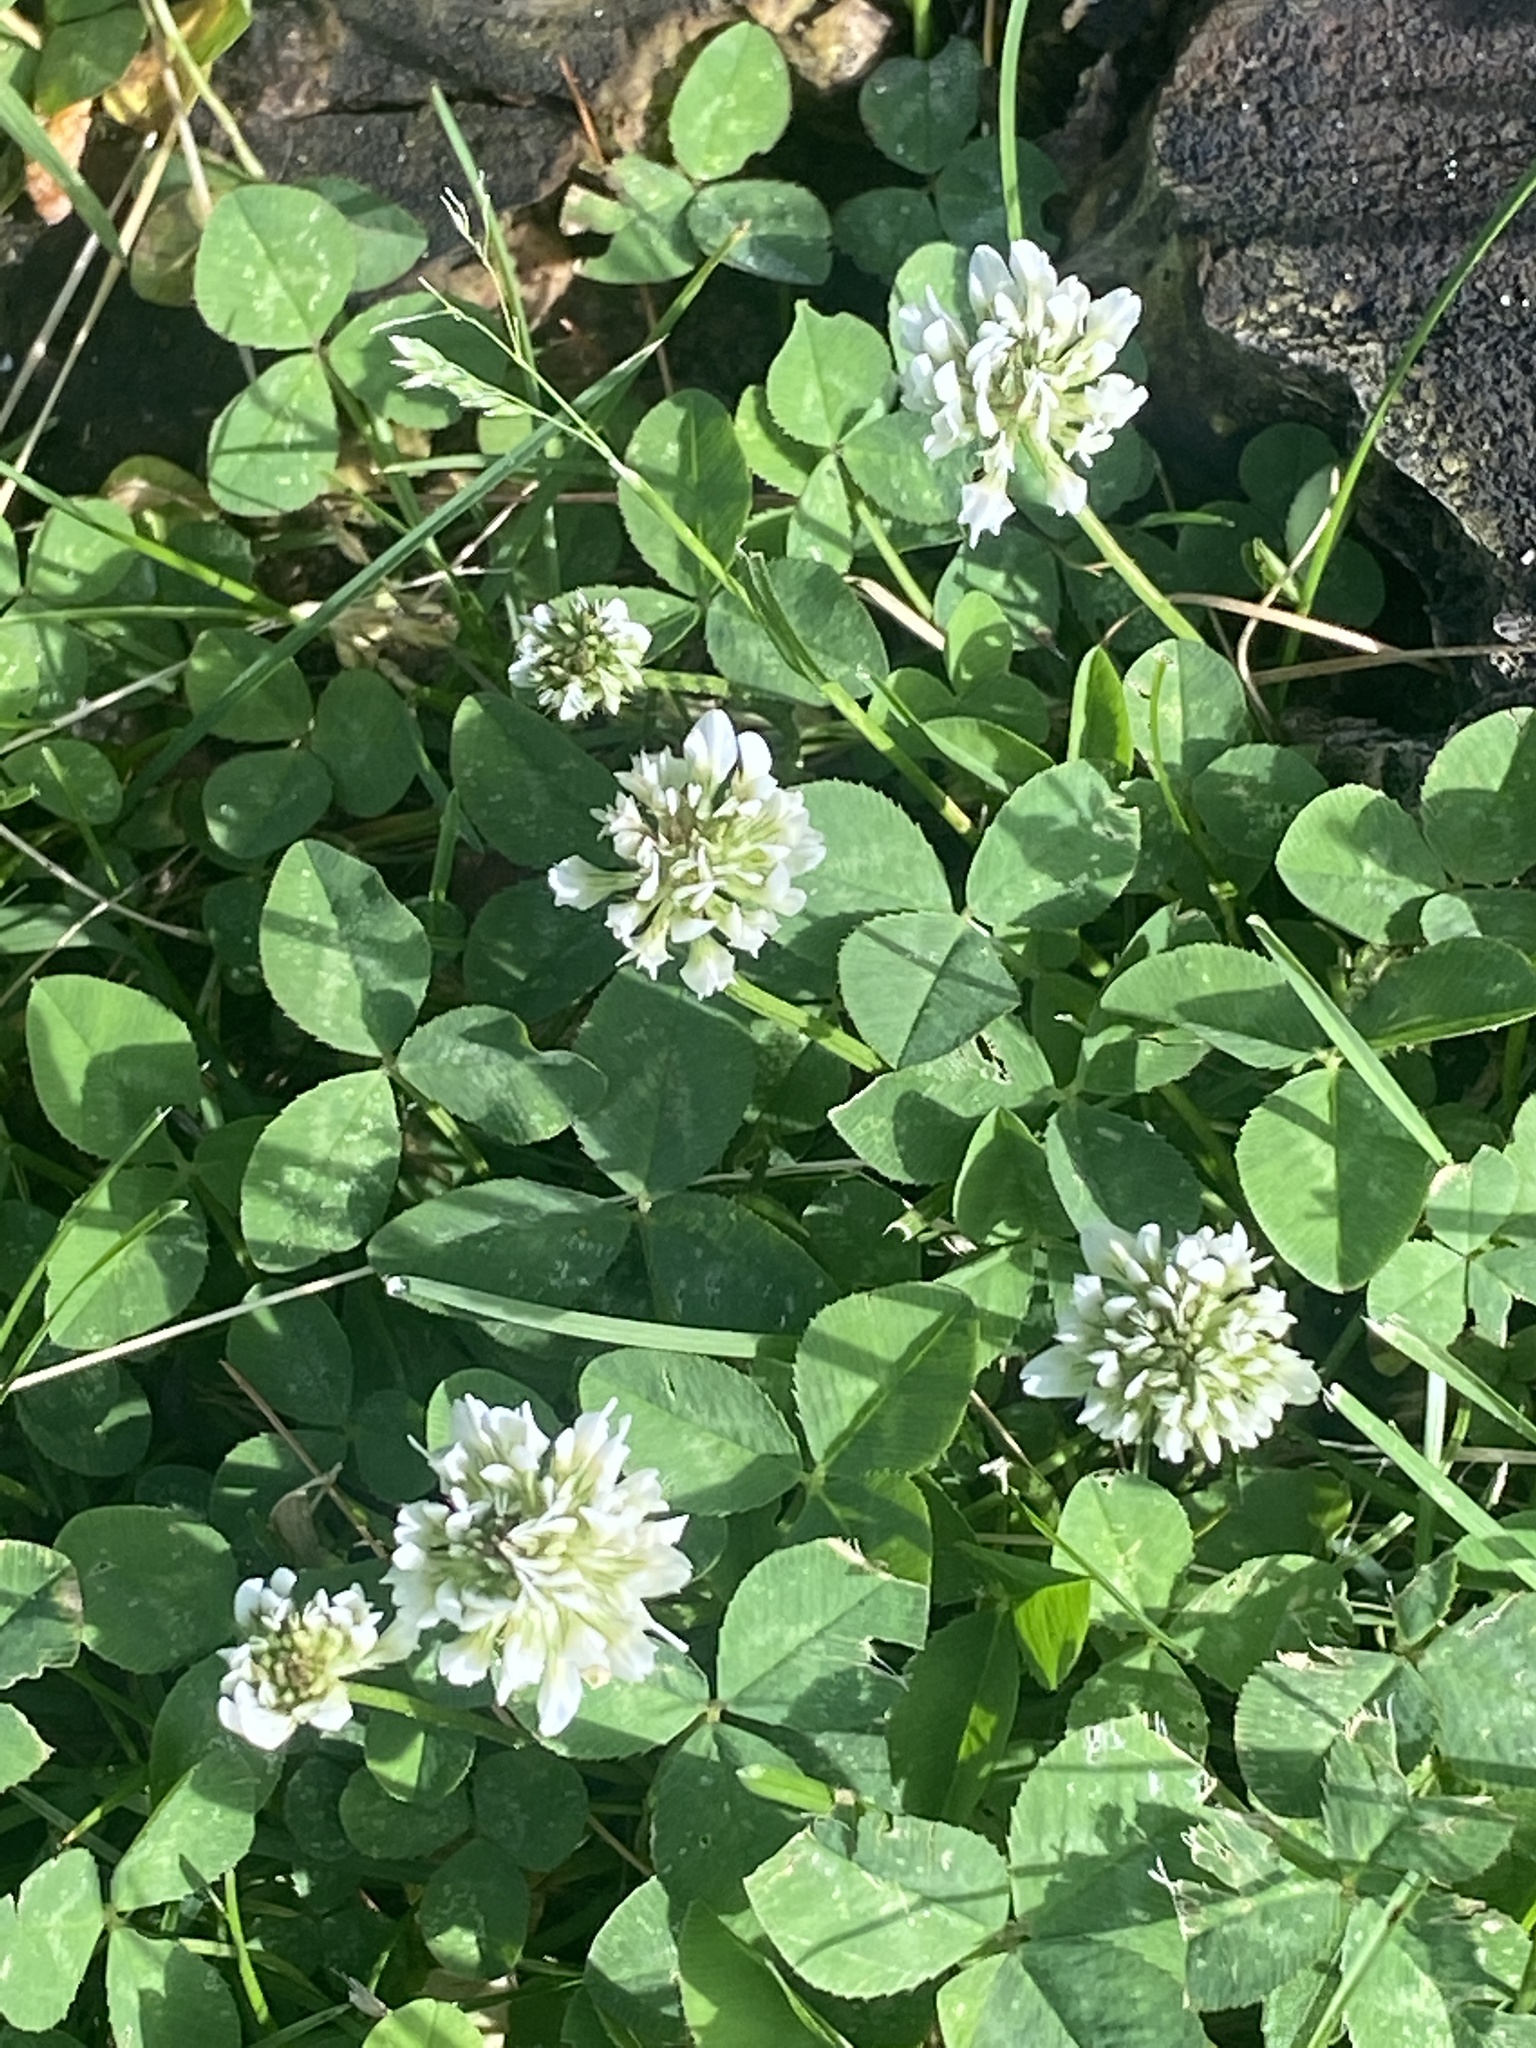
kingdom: Plantae
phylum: Tracheophyta
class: Magnoliopsida
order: Fabales
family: Fabaceae
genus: Trifolium
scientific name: Trifolium repens
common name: White clover
